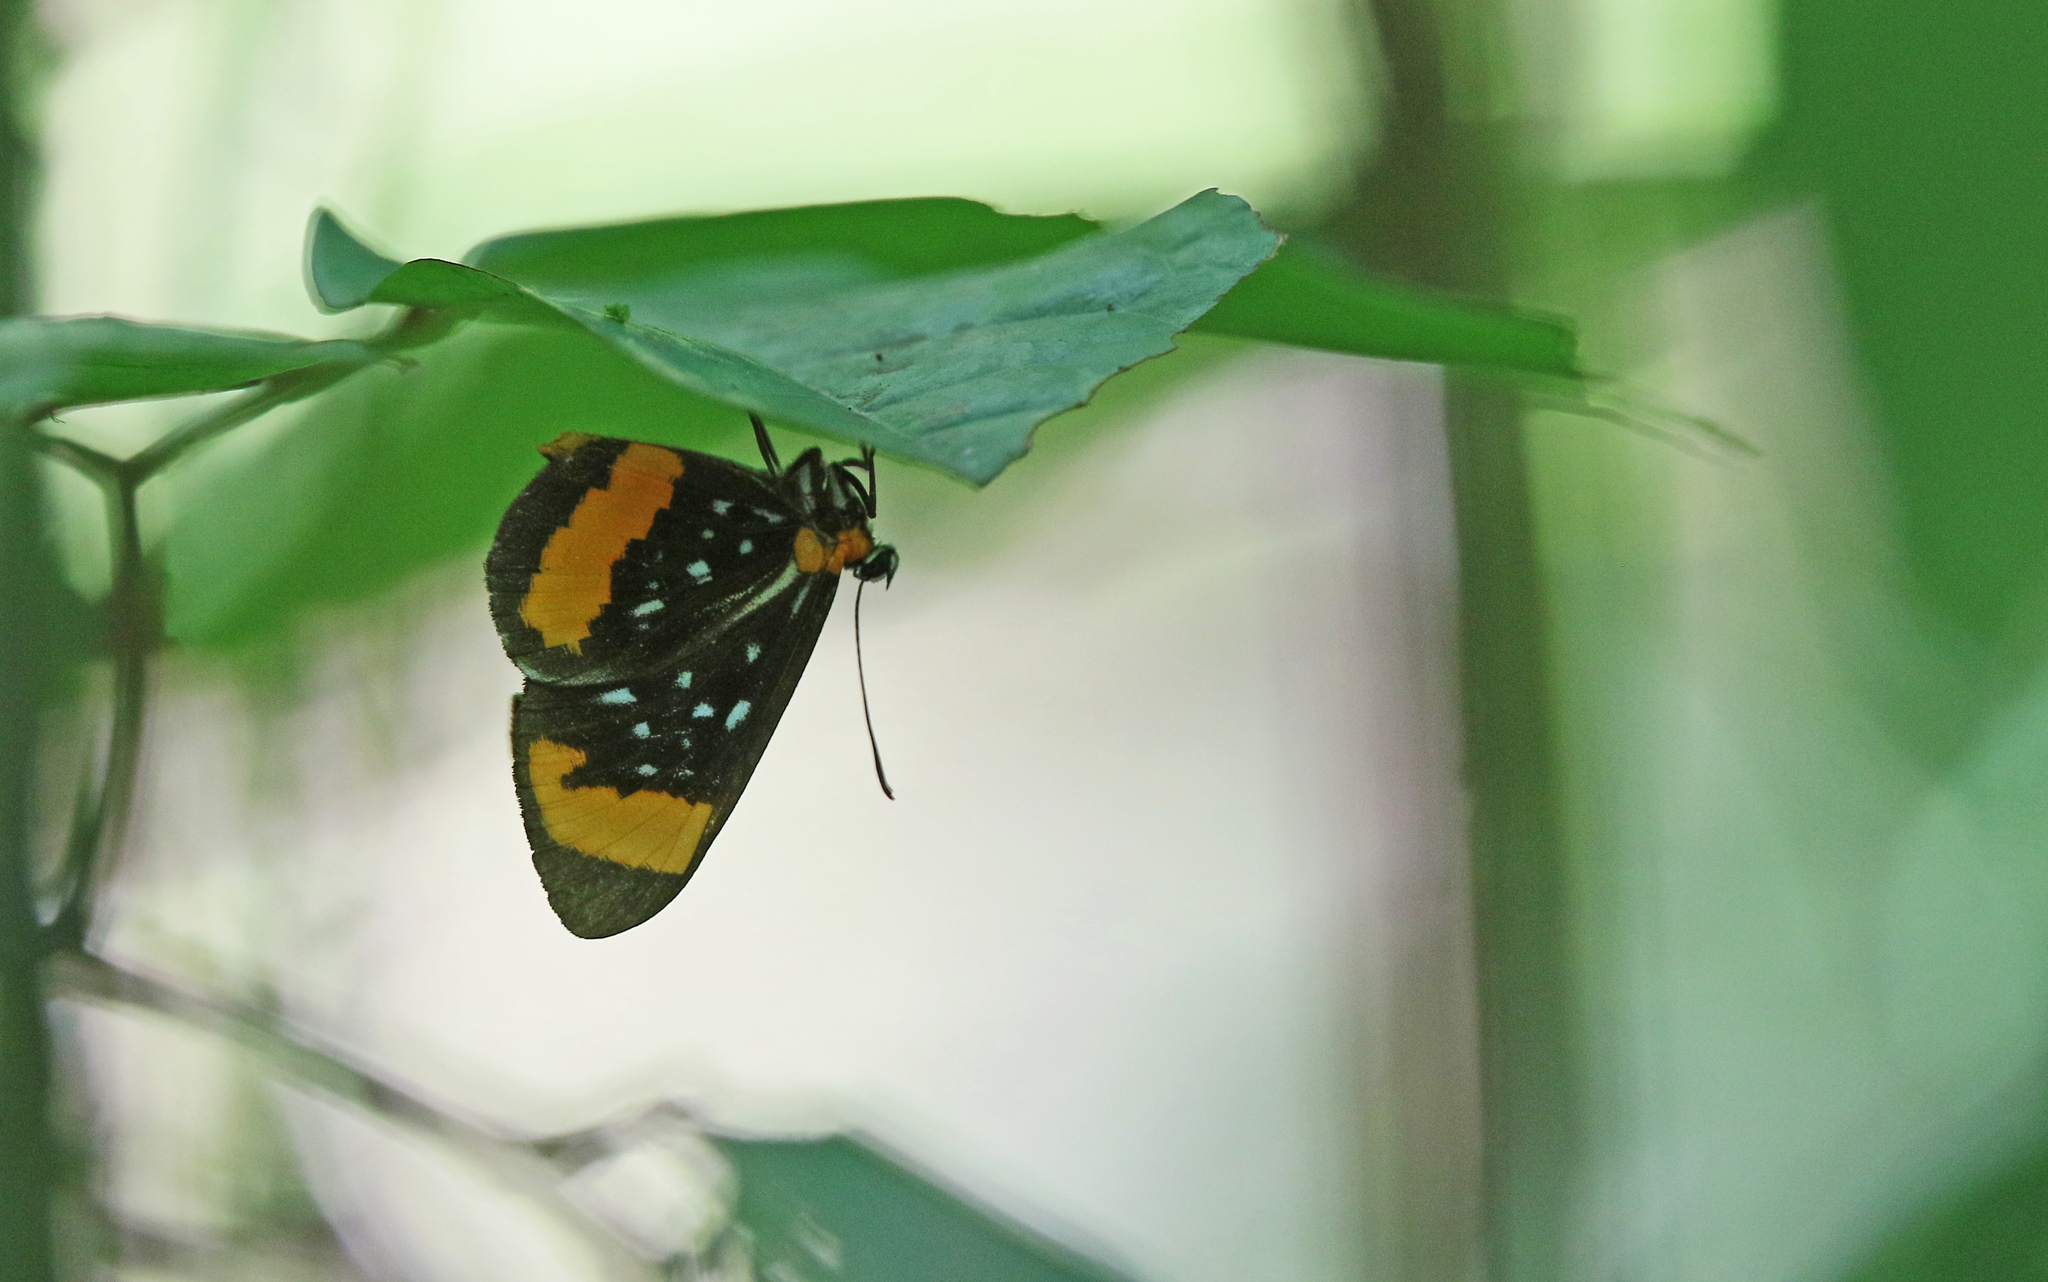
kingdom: Animalia
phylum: Arthropoda
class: Insecta
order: Lepidoptera
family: Riodinidae
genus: Stalachtis
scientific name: Stalachtis euterpe
